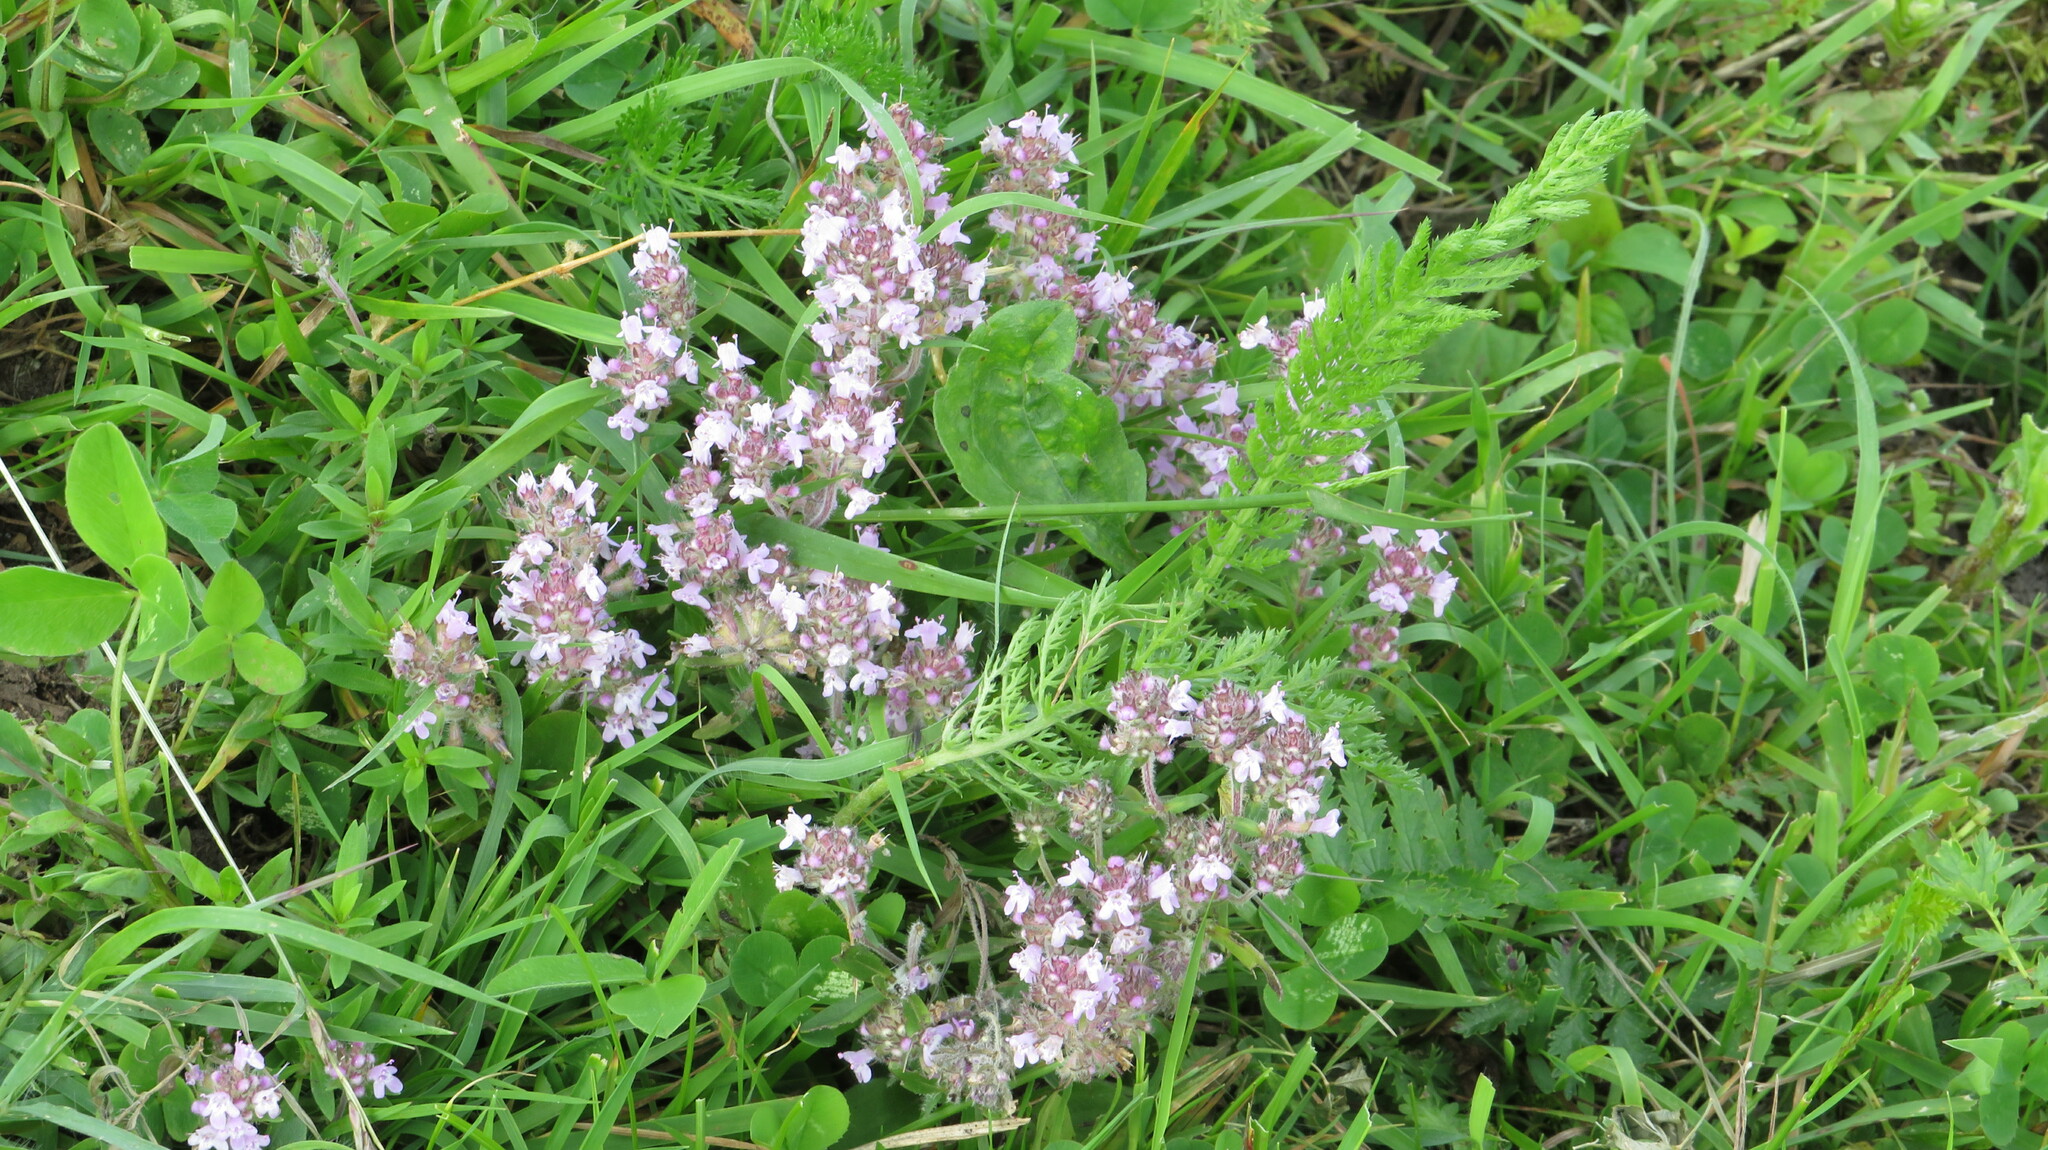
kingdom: Plantae
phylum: Tracheophyta
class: Magnoliopsida
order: Lamiales
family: Lamiaceae
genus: Thymus
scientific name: Thymus pannonicus
